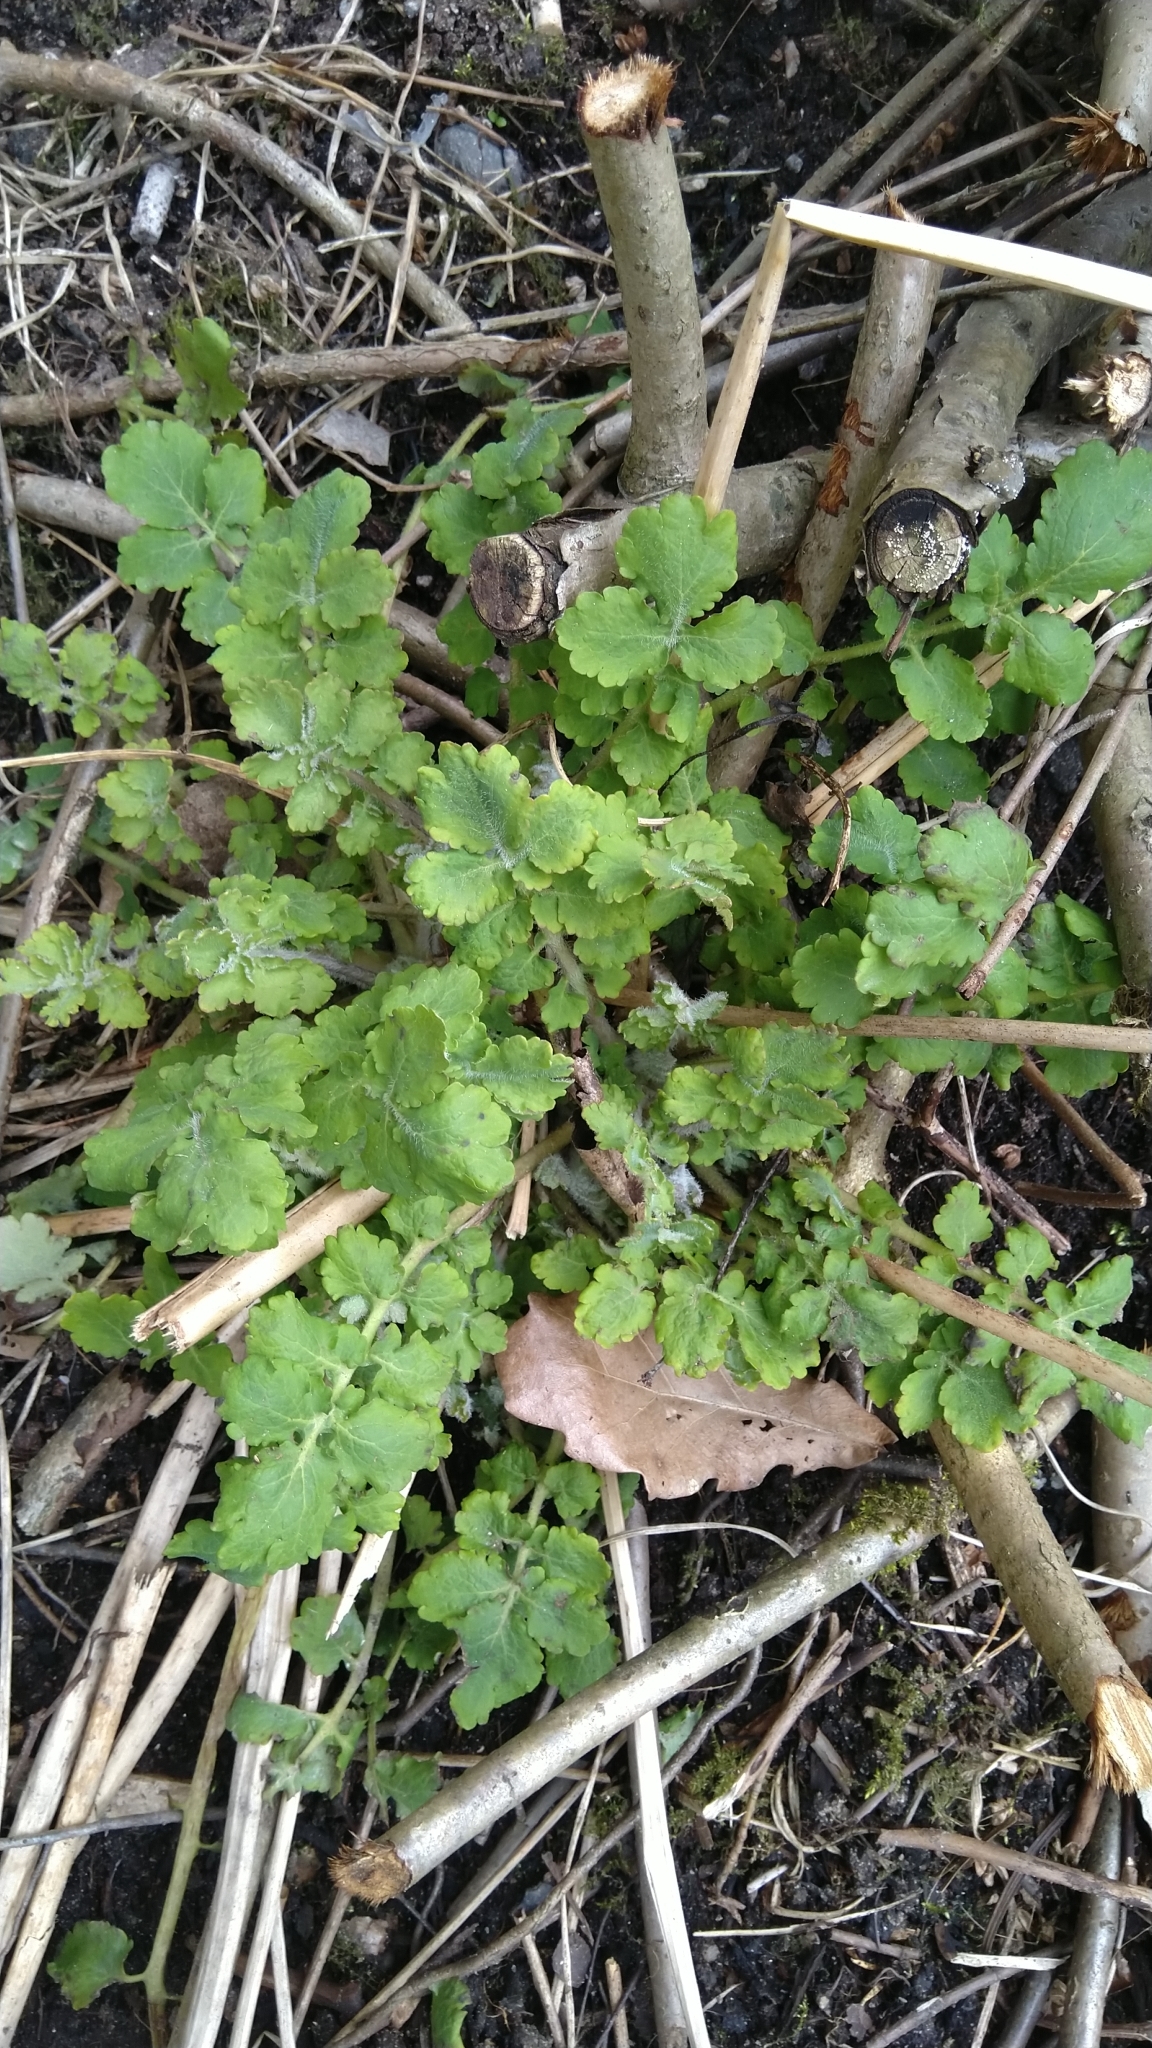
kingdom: Plantae
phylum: Tracheophyta
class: Magnoliopsida
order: Ranunculales
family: Papaveraceae
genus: Chelidonium
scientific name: Chelidonium majus
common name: Greater celandine
